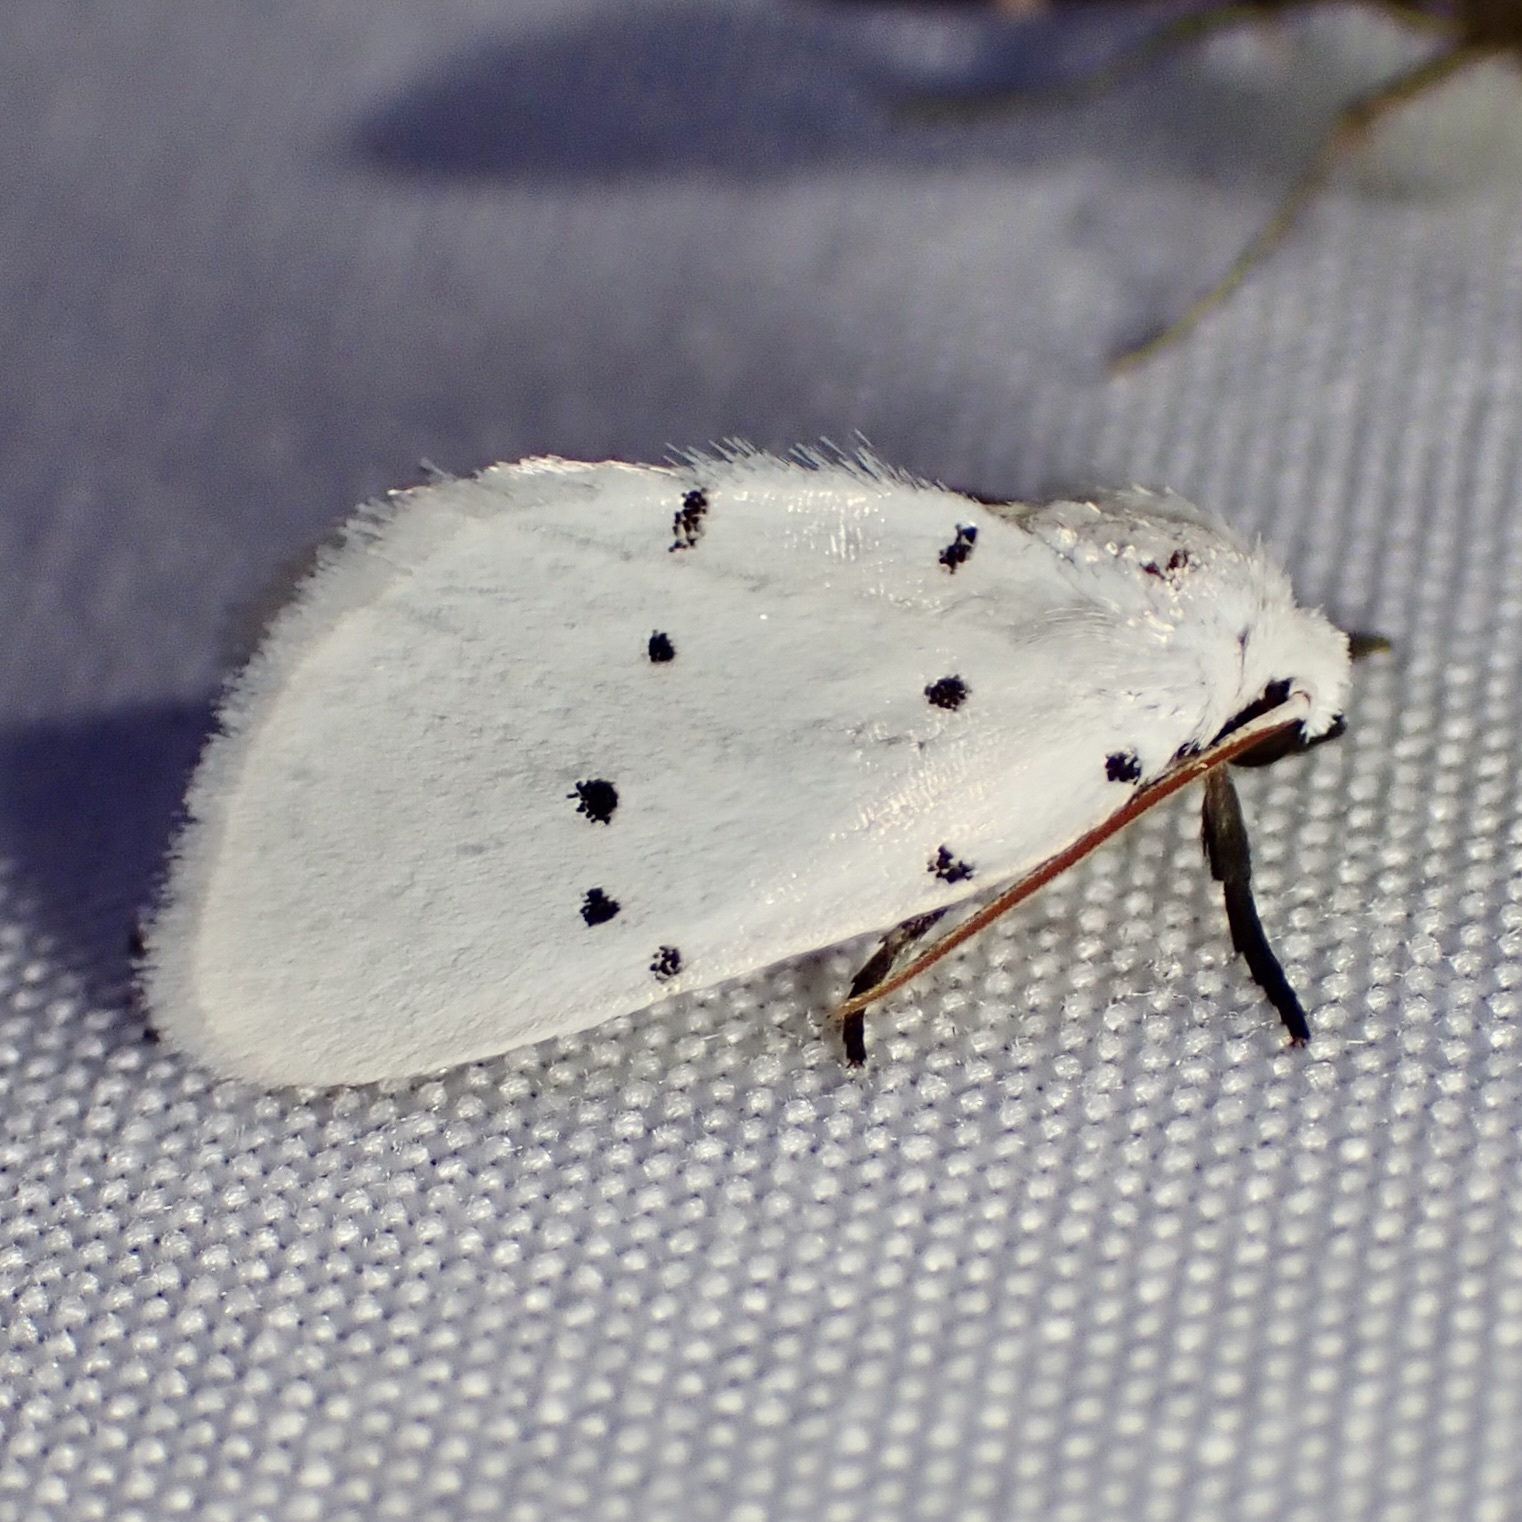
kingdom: Animalia
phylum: Arthropoda
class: Insecta
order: Lepidoptera
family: Noctuidae
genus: Homolagoa
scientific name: Homolagoa grotelliformis
